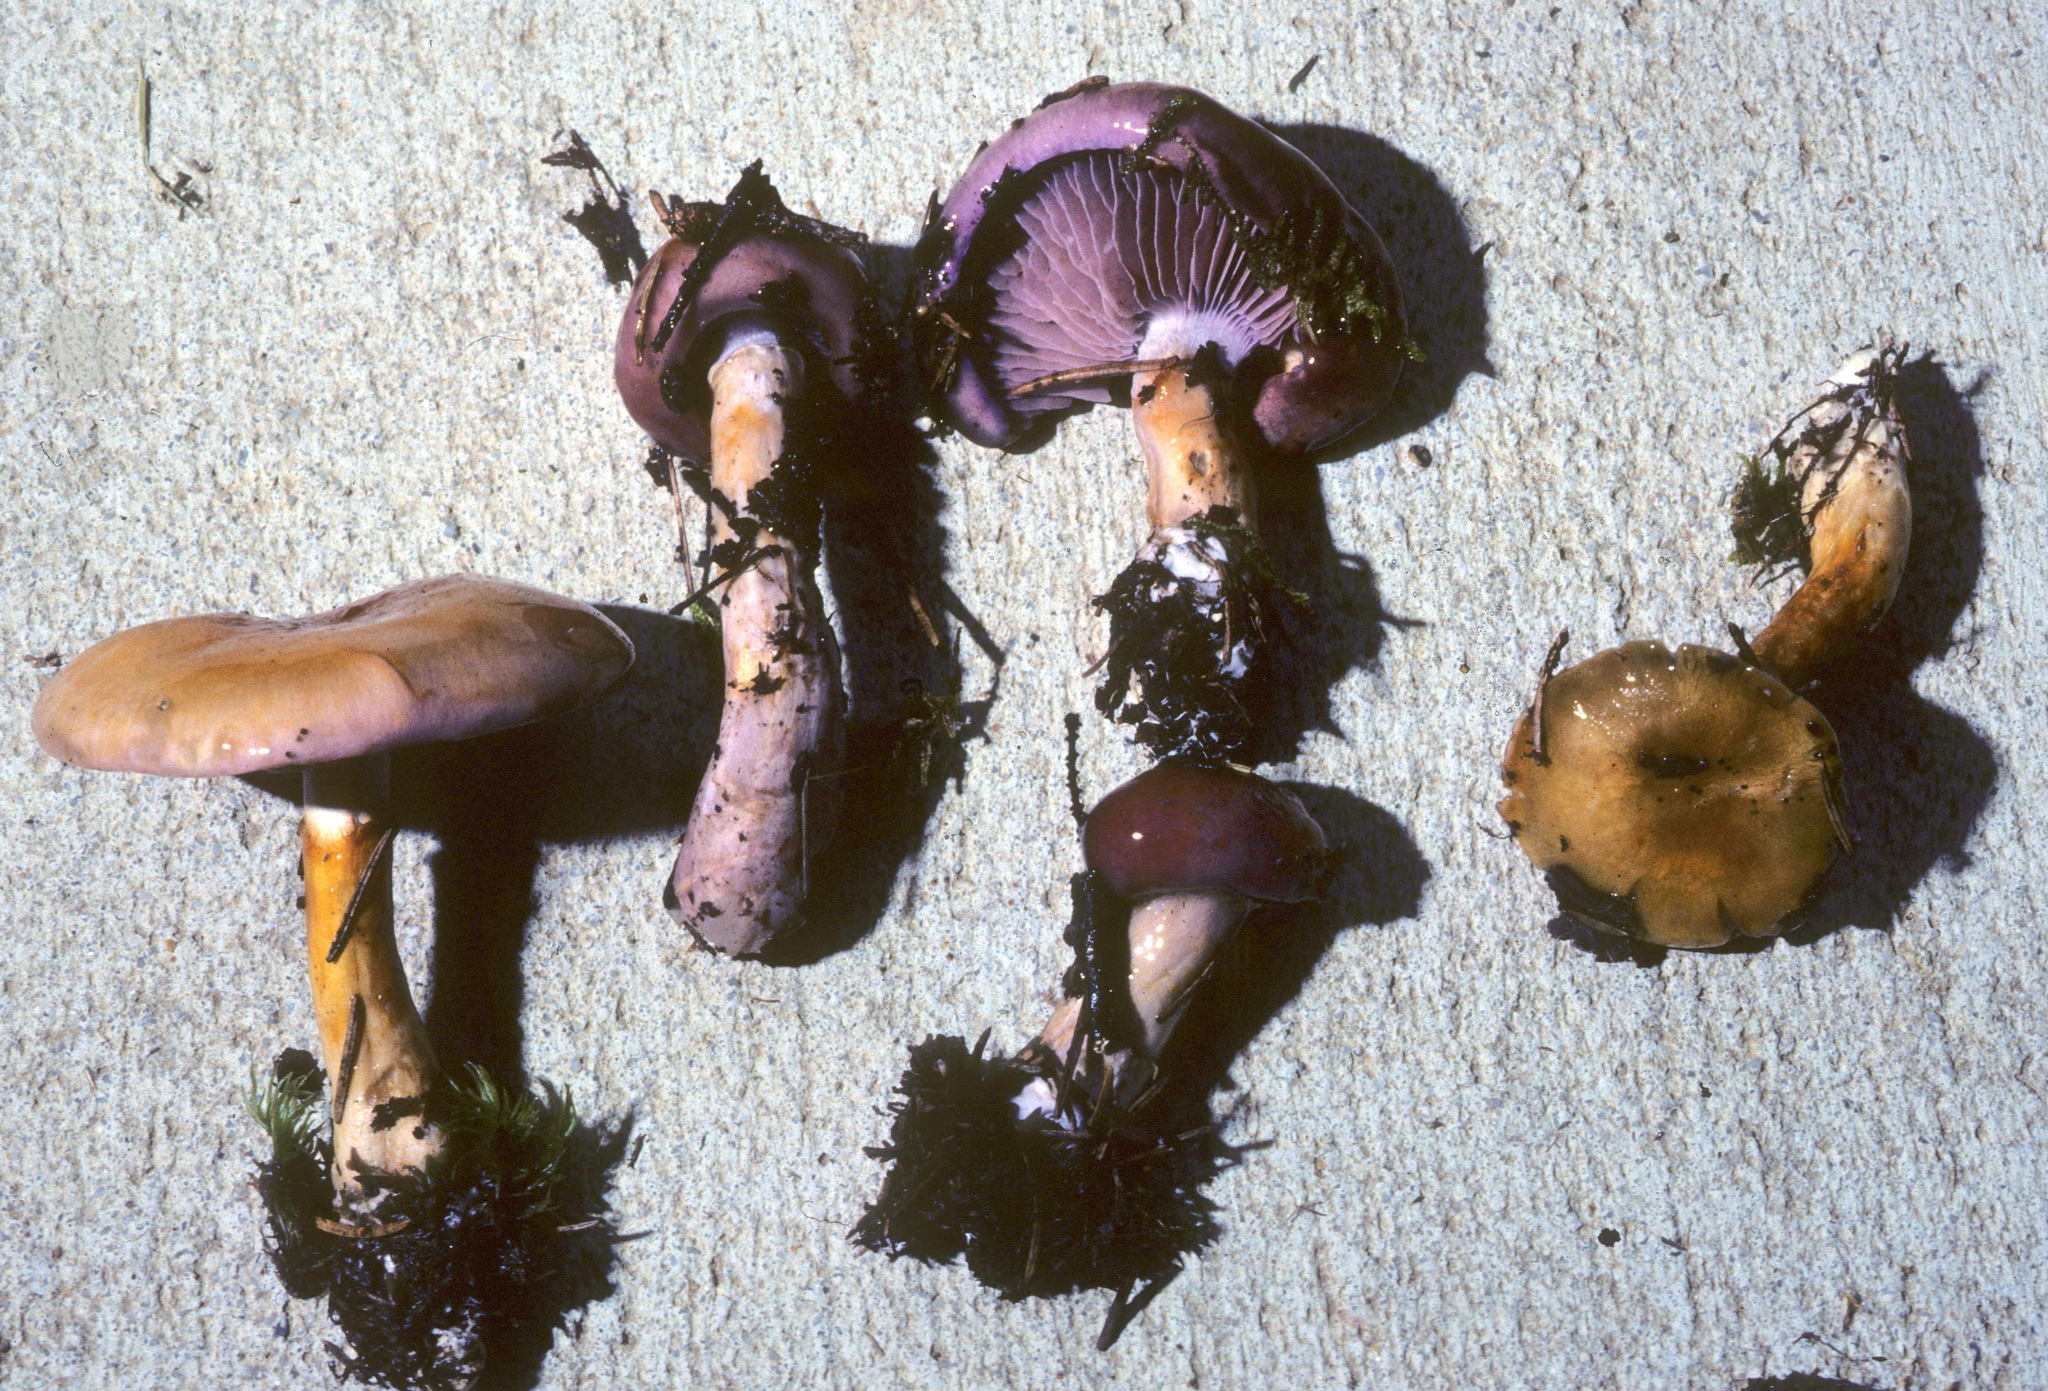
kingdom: Fungi
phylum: Basidiomycota
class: Agaricomycetes
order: Agaricales
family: Cortinariaceae
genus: Cortinarius
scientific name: Cortinarius salor
